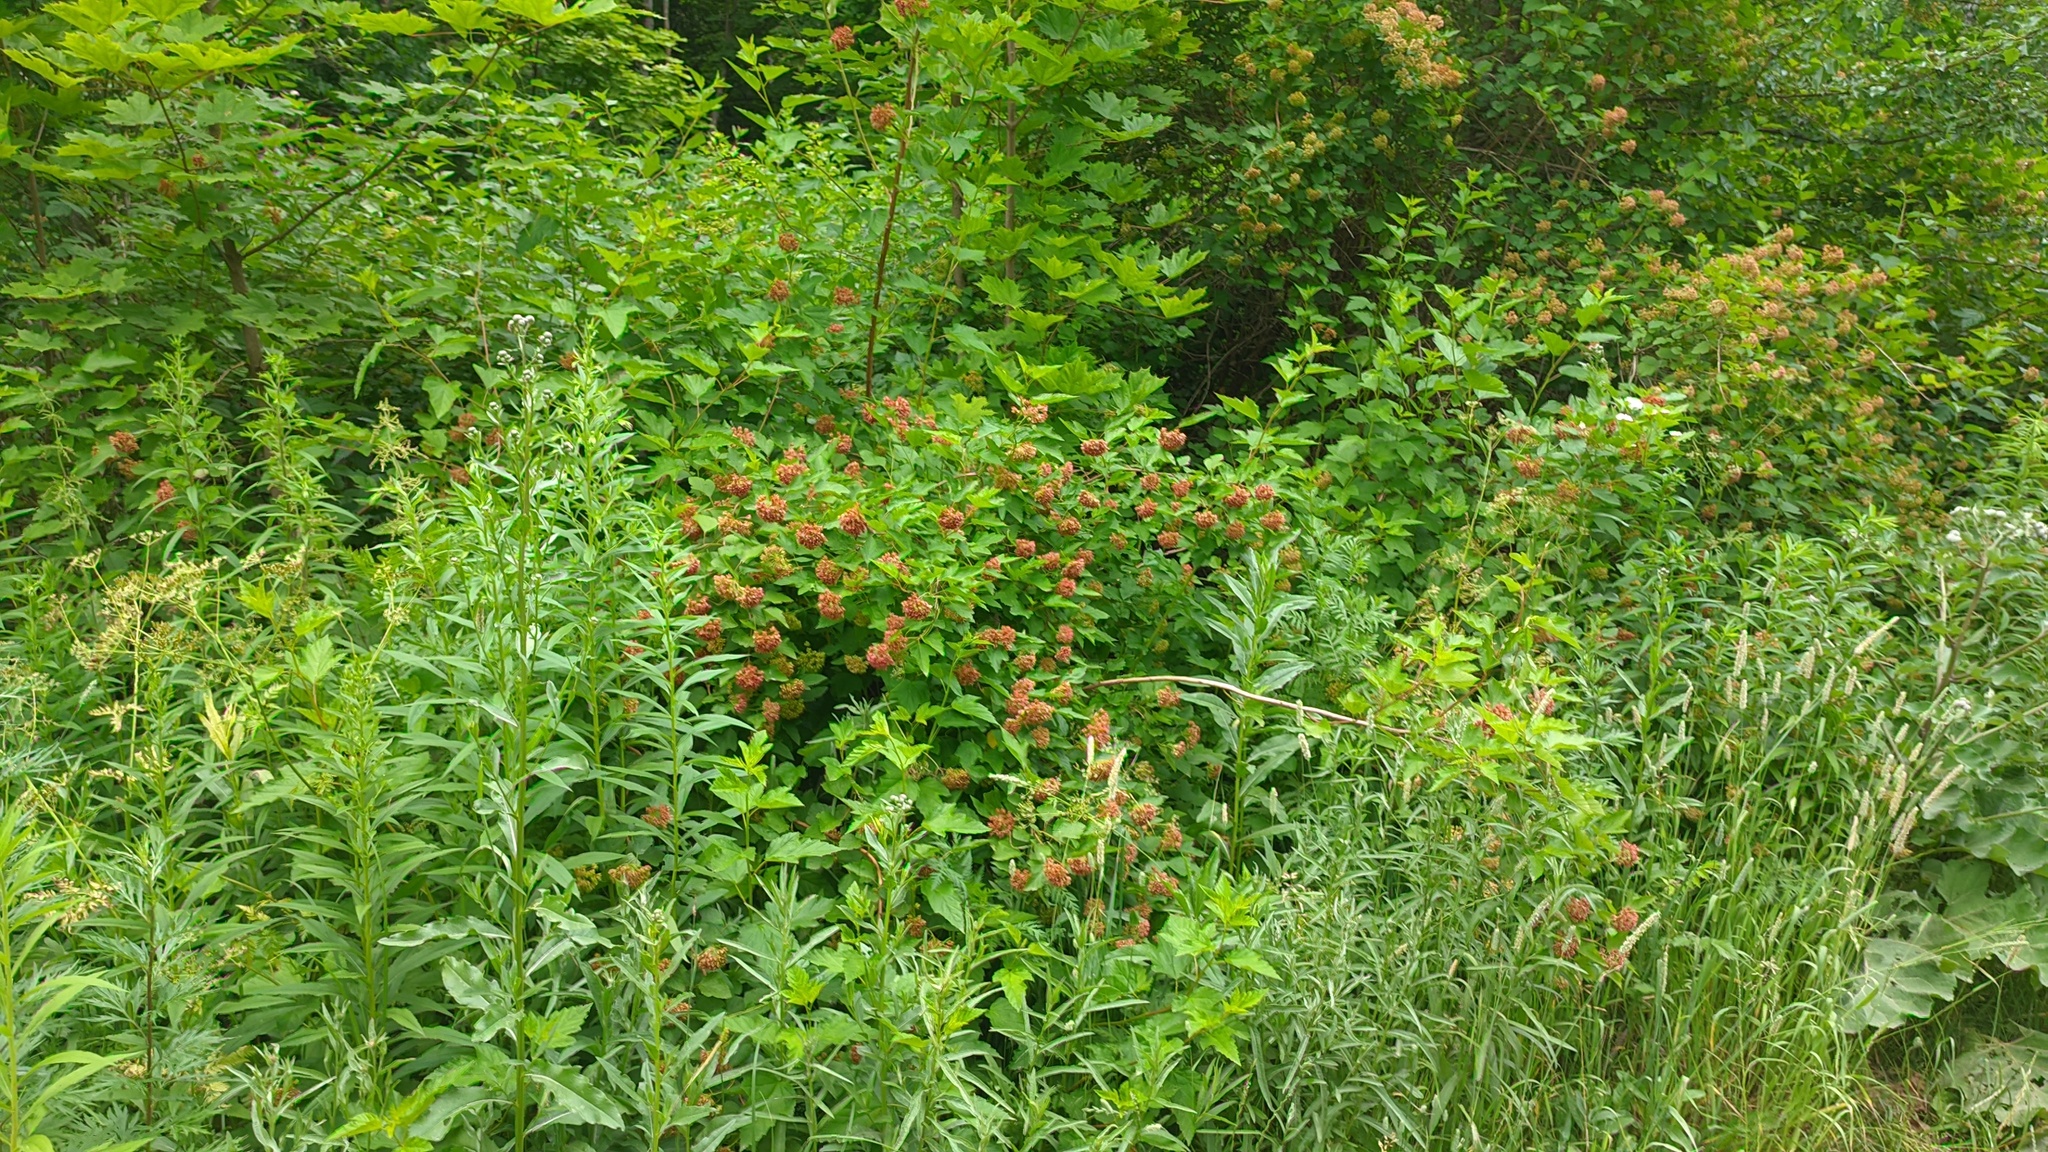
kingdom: Plantae
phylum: Tracheophyta
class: Magnoliopsida
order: Rosales
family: Rosaceae
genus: Physocarpus
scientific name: Physocarpus opulifolius
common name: Ninebark
